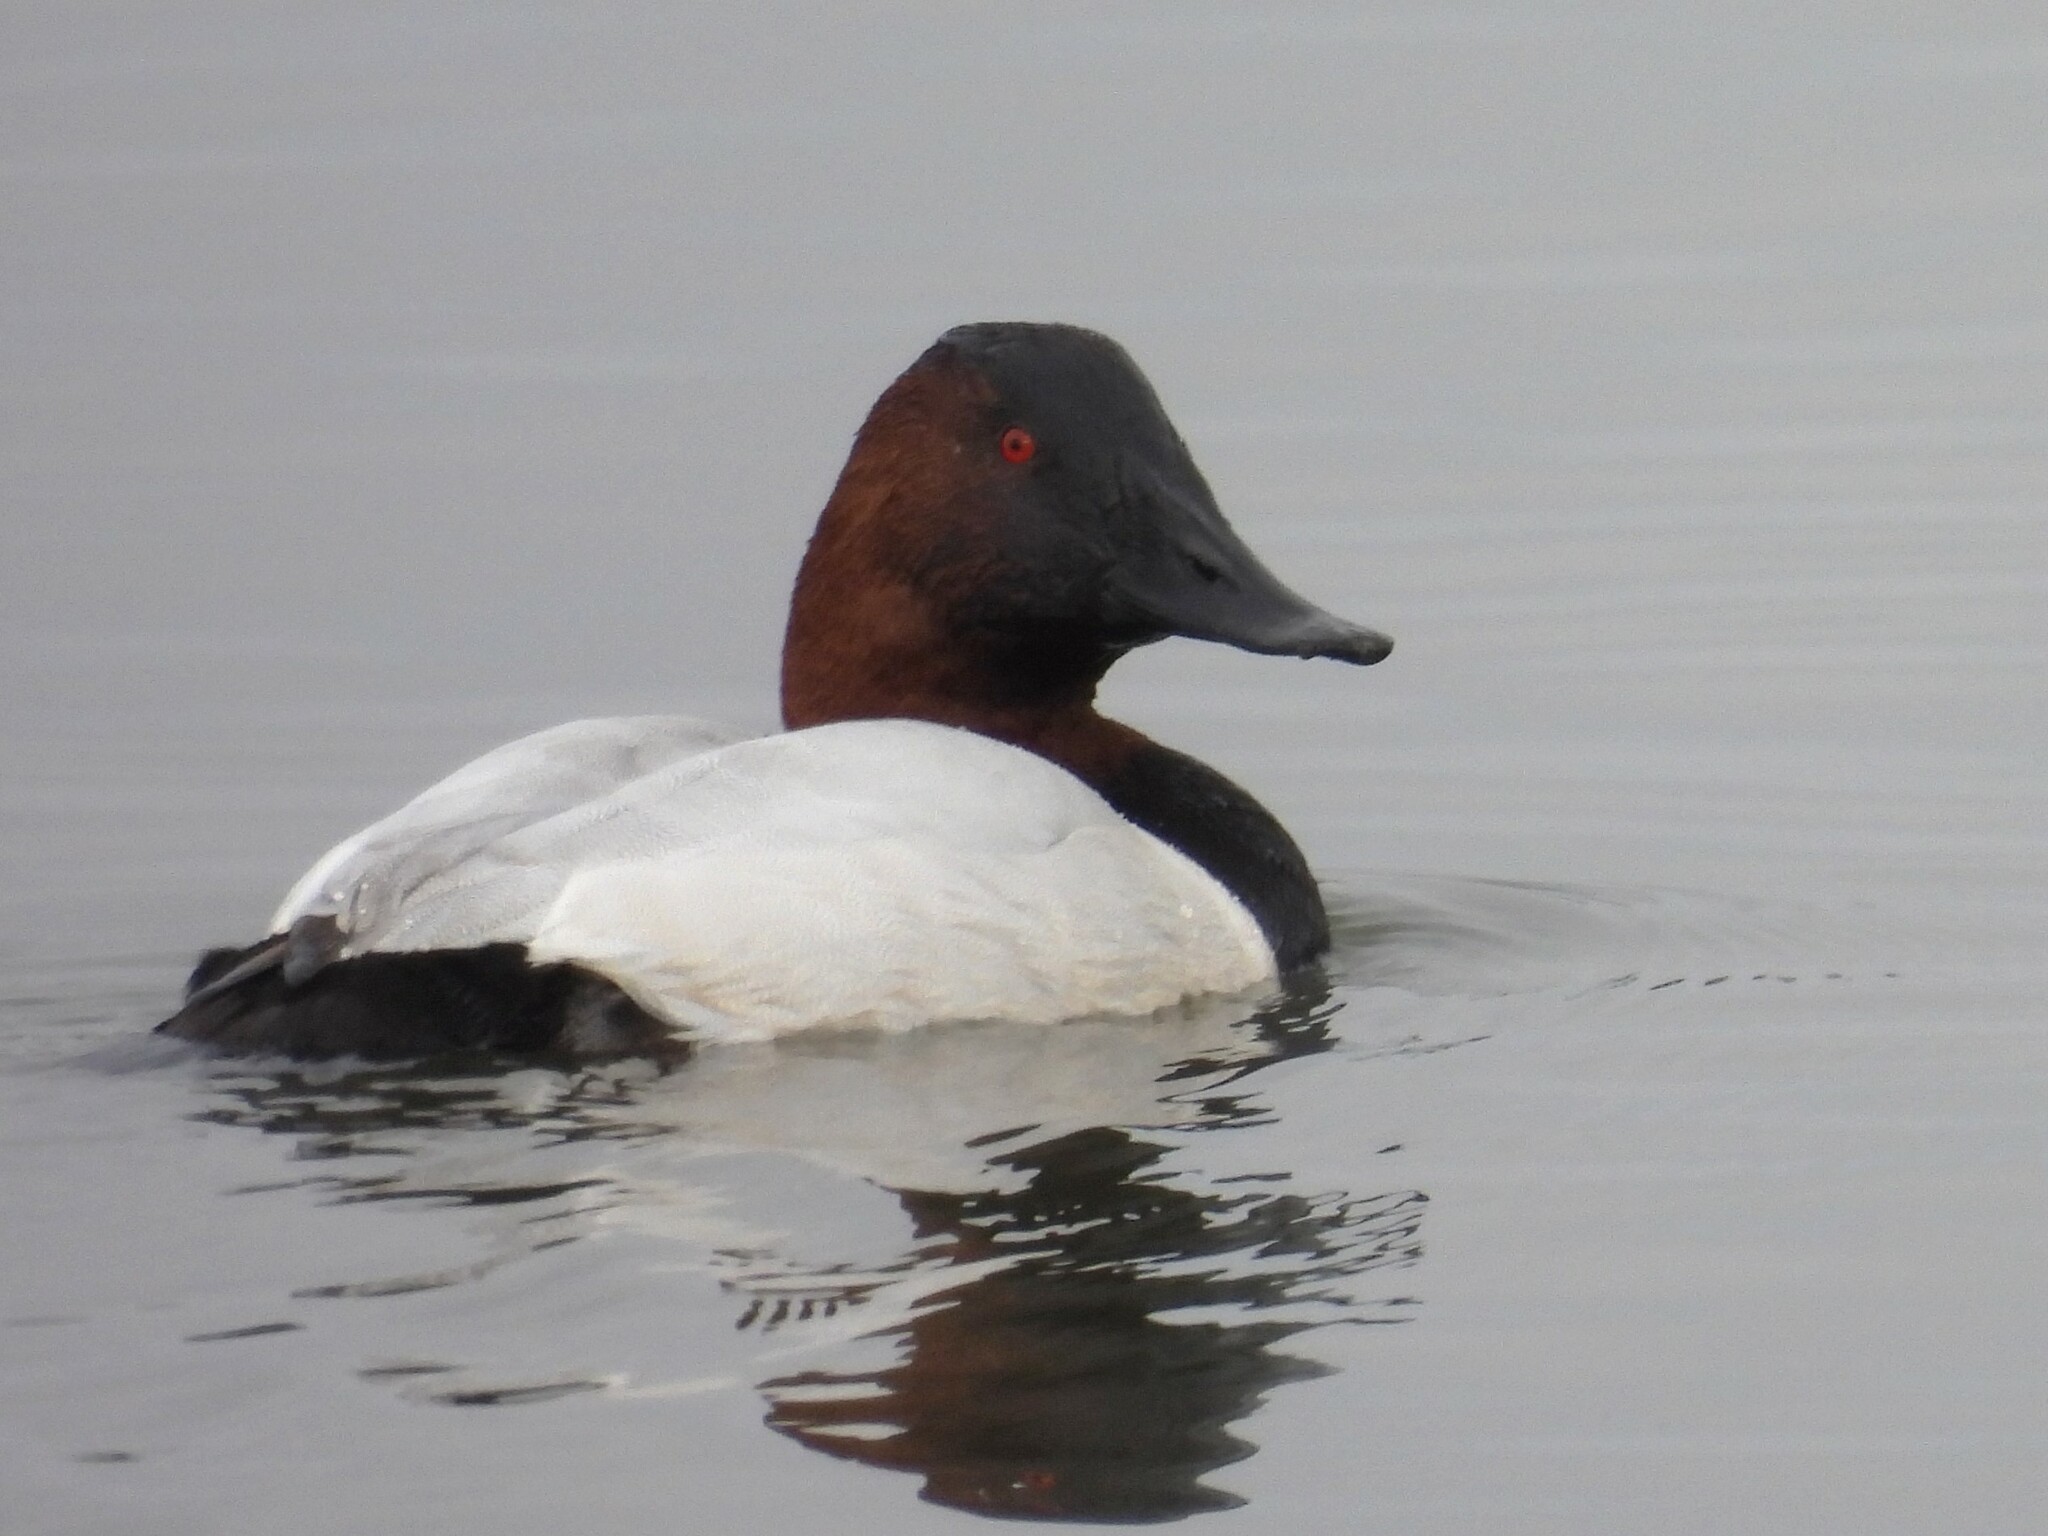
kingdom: Animalia
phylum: Chordata
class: Aves
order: Anseriformes
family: Anatidae
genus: Aythya
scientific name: Aythya valisineria
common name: Canvasback
